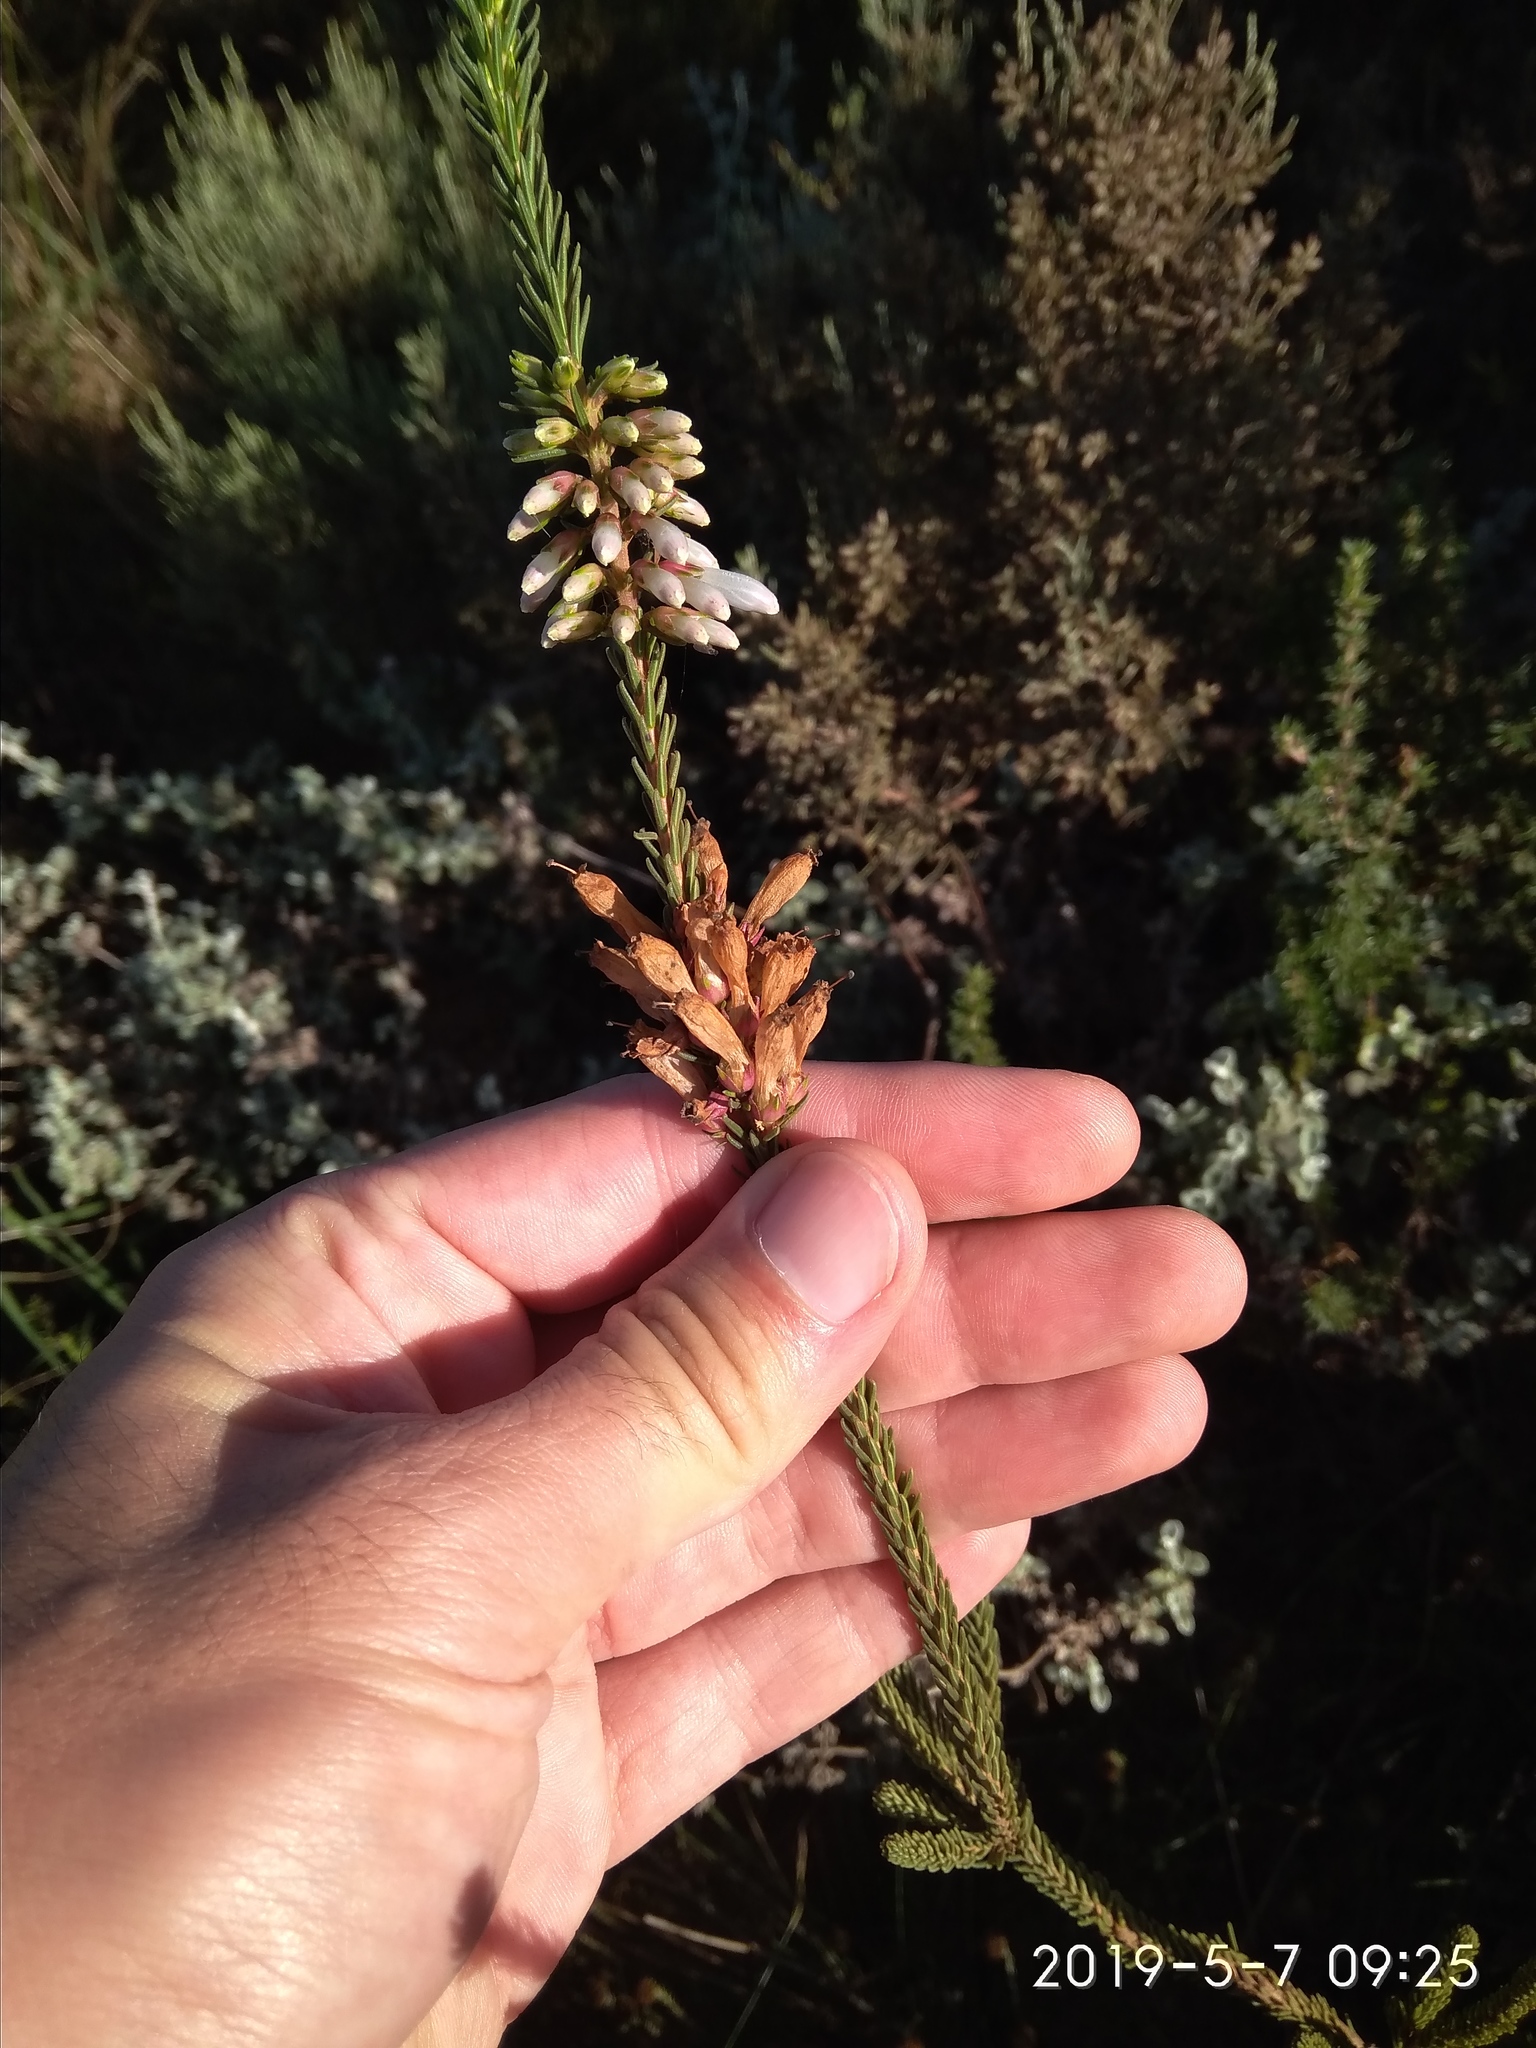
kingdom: Plantae
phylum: Tracheophyta
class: Magnoliopsida
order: Ericales
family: Ericaceae
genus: Erica
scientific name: Erica regia
